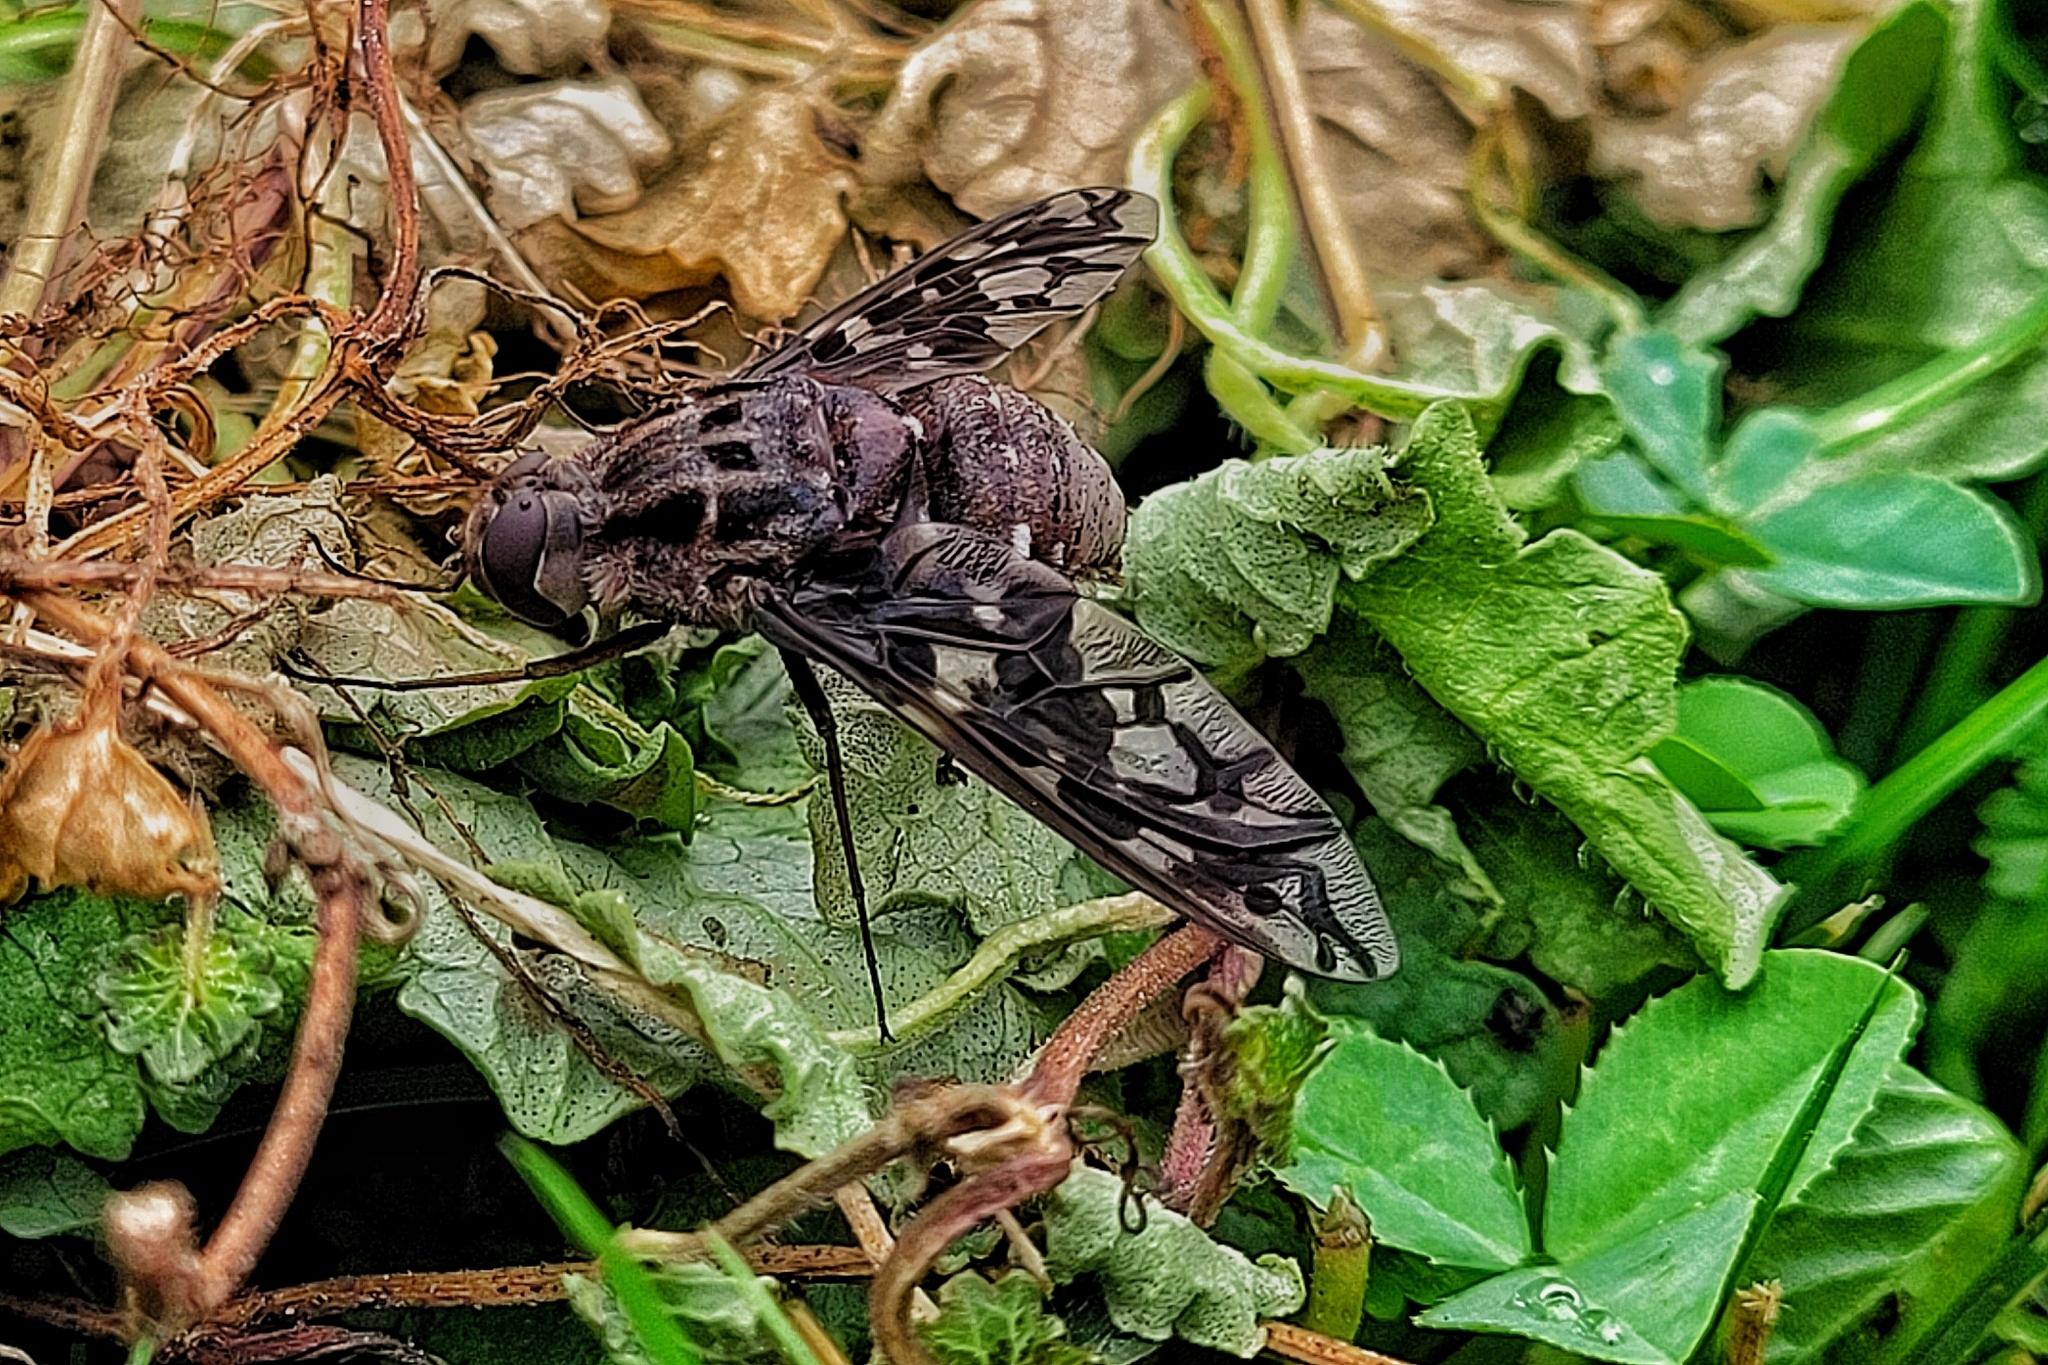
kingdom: Animalia
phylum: Arthropoda
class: Insecta
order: Diptera
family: Bombyliidae
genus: Xenox
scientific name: Xenox tigrinus
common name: Tiger bee fly
